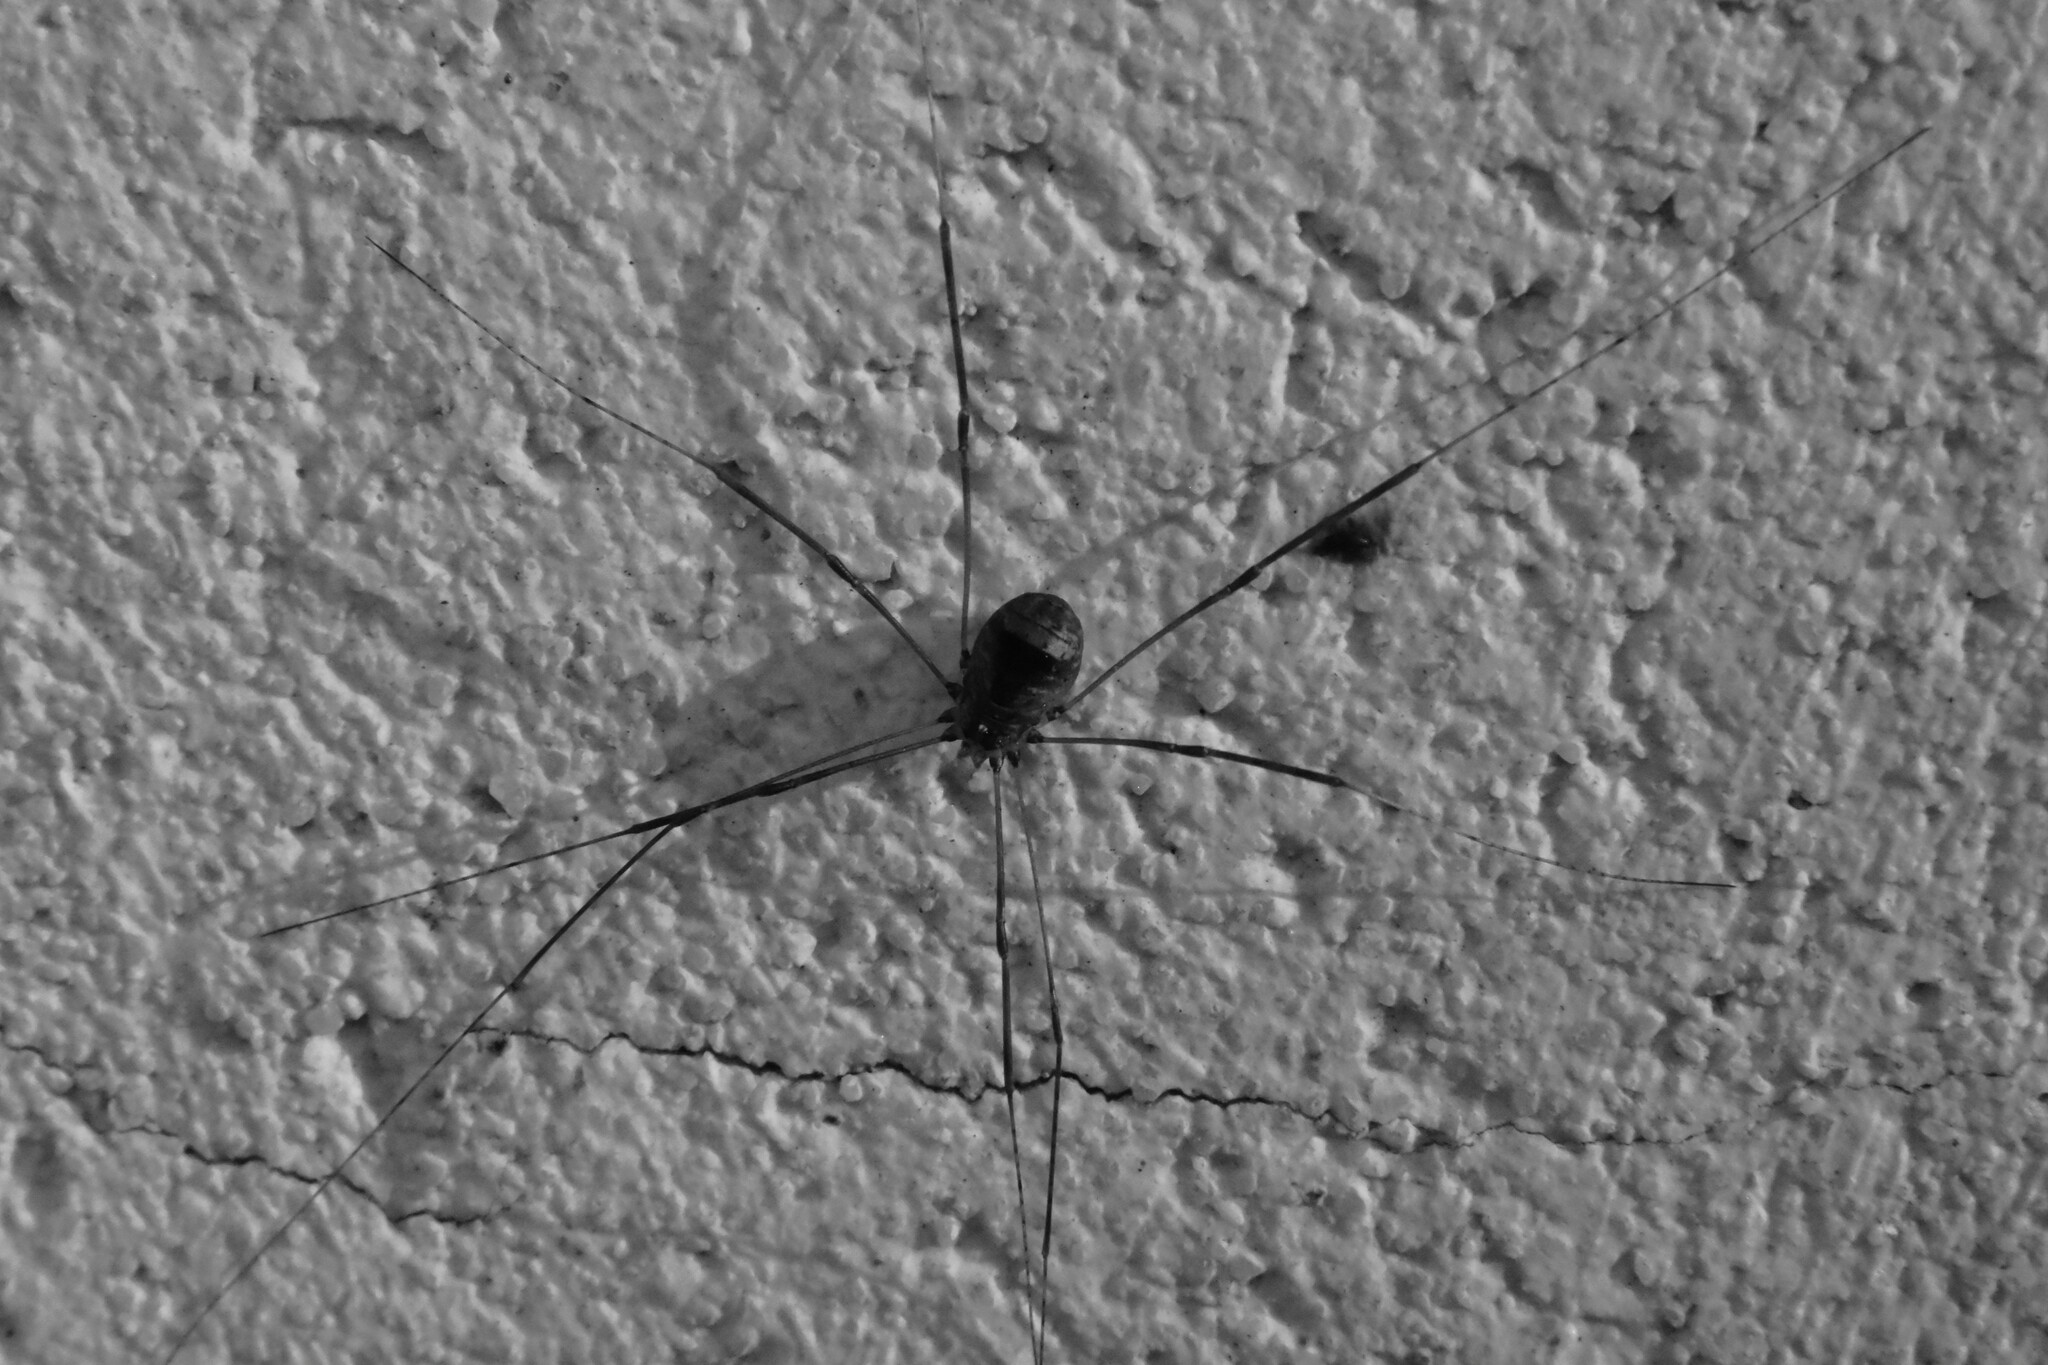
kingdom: Animalia
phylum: Arthropoda
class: Arachnida
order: Opiliones
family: Sclerosomatidae
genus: Leiobunum
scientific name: Leiobunum blackwalli
